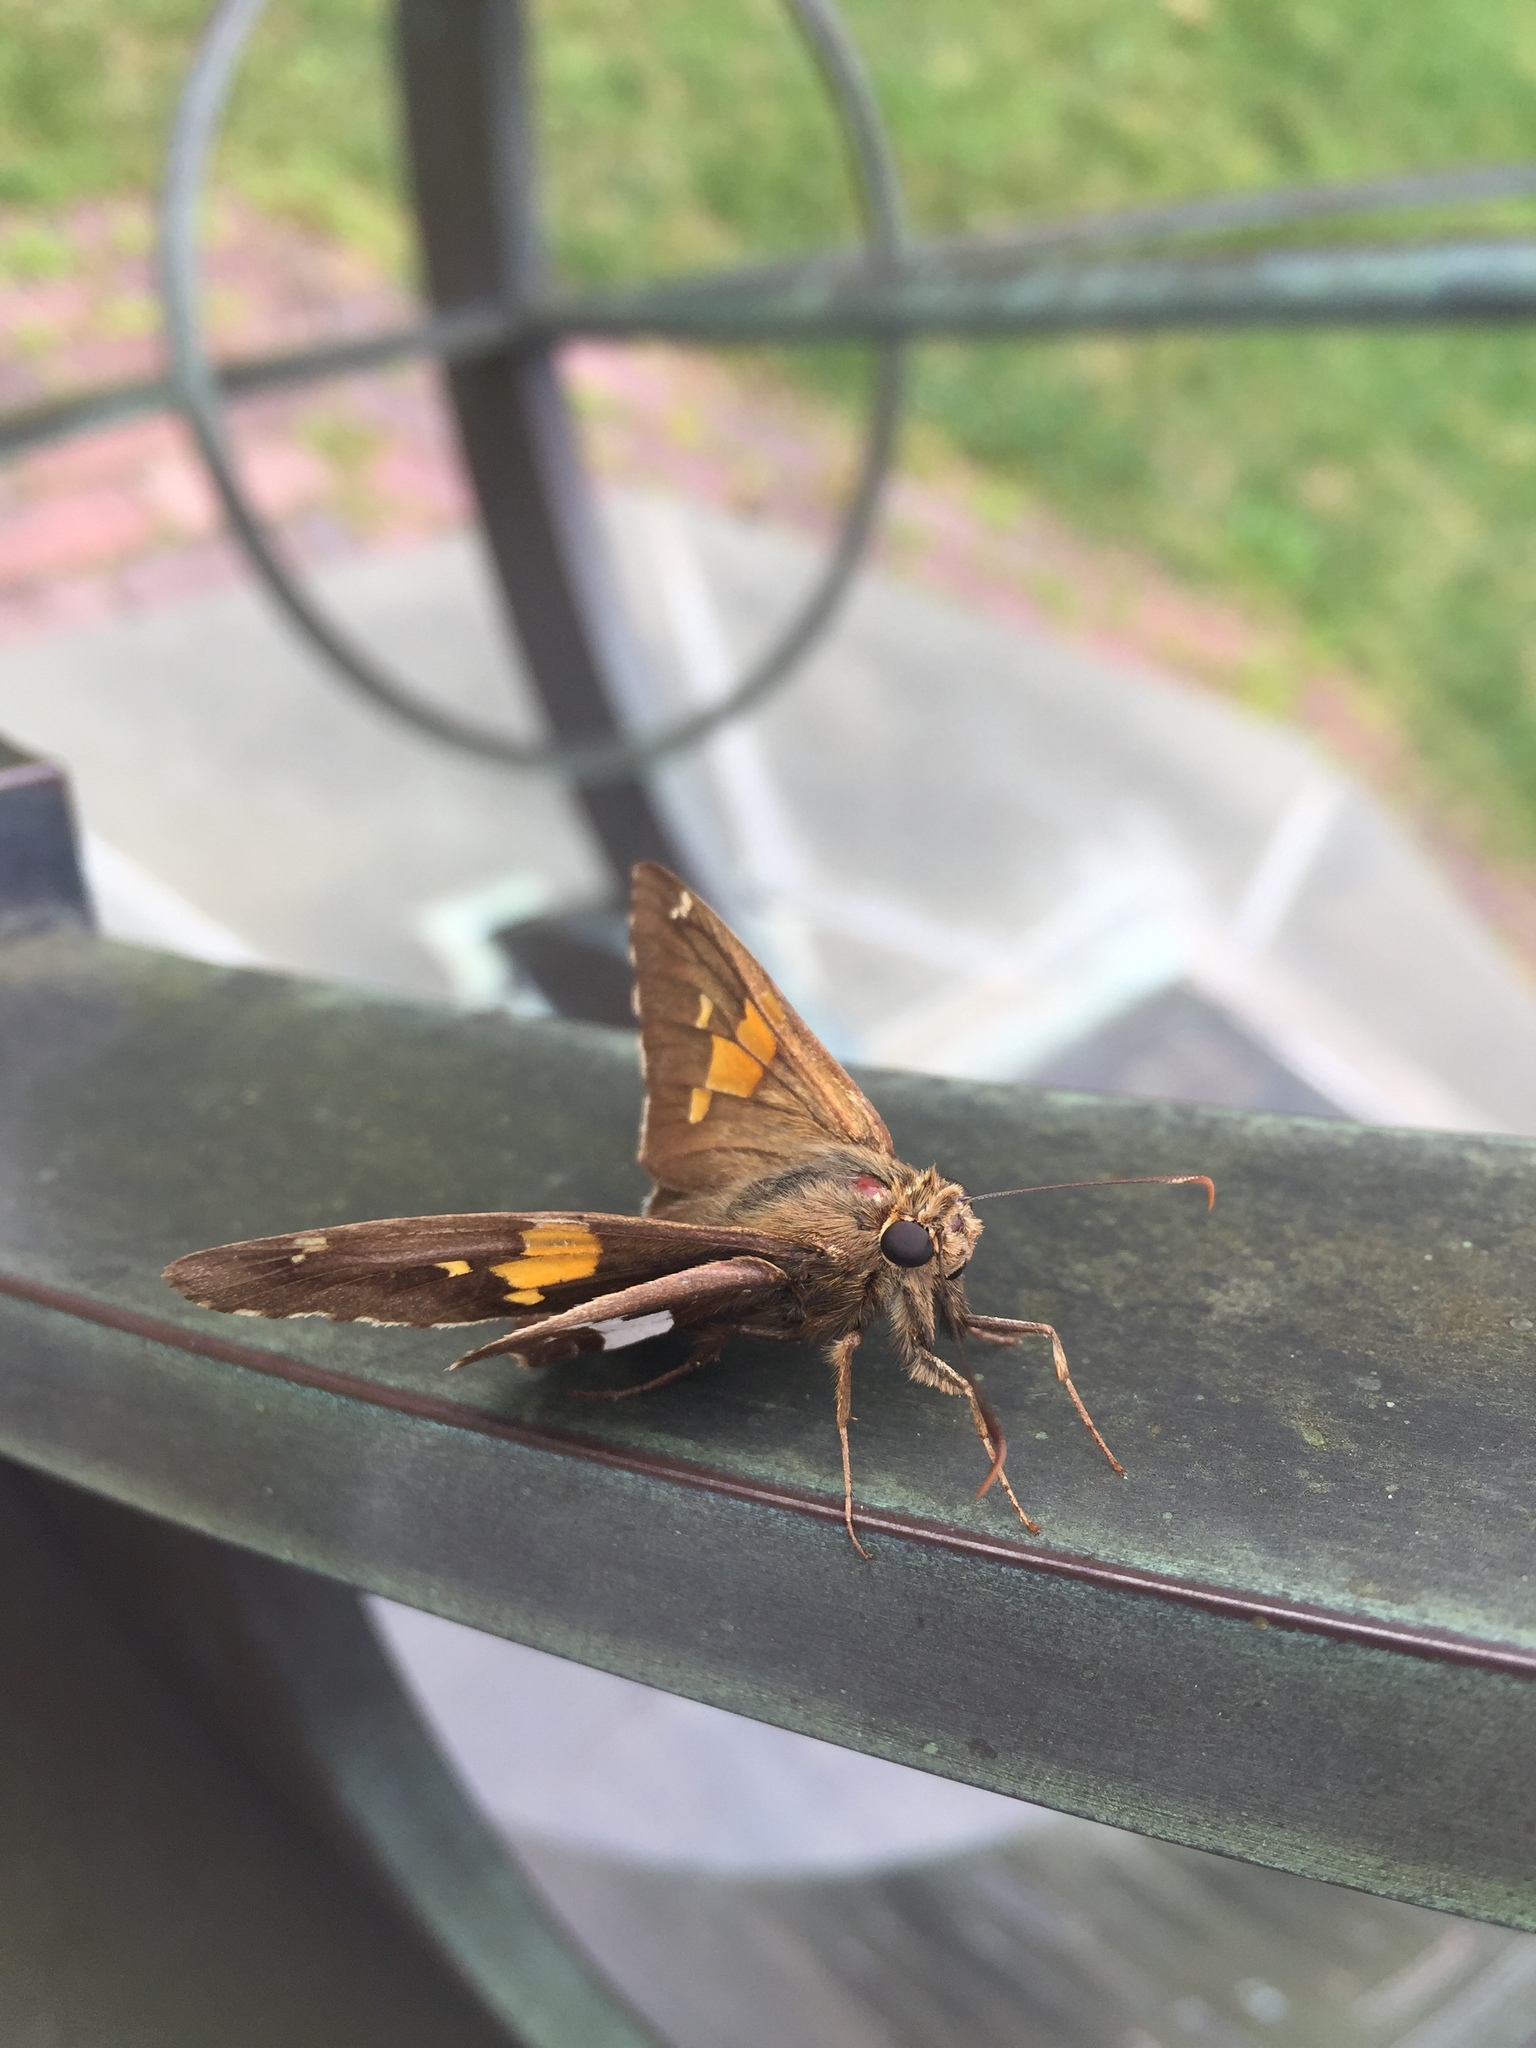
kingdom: Animalia
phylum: Arthropoda
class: Insecta
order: Lepidoptera
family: Hesperiidae
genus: Epargyreus
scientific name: Epargyreus clarus
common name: Silver-spotted skipper
